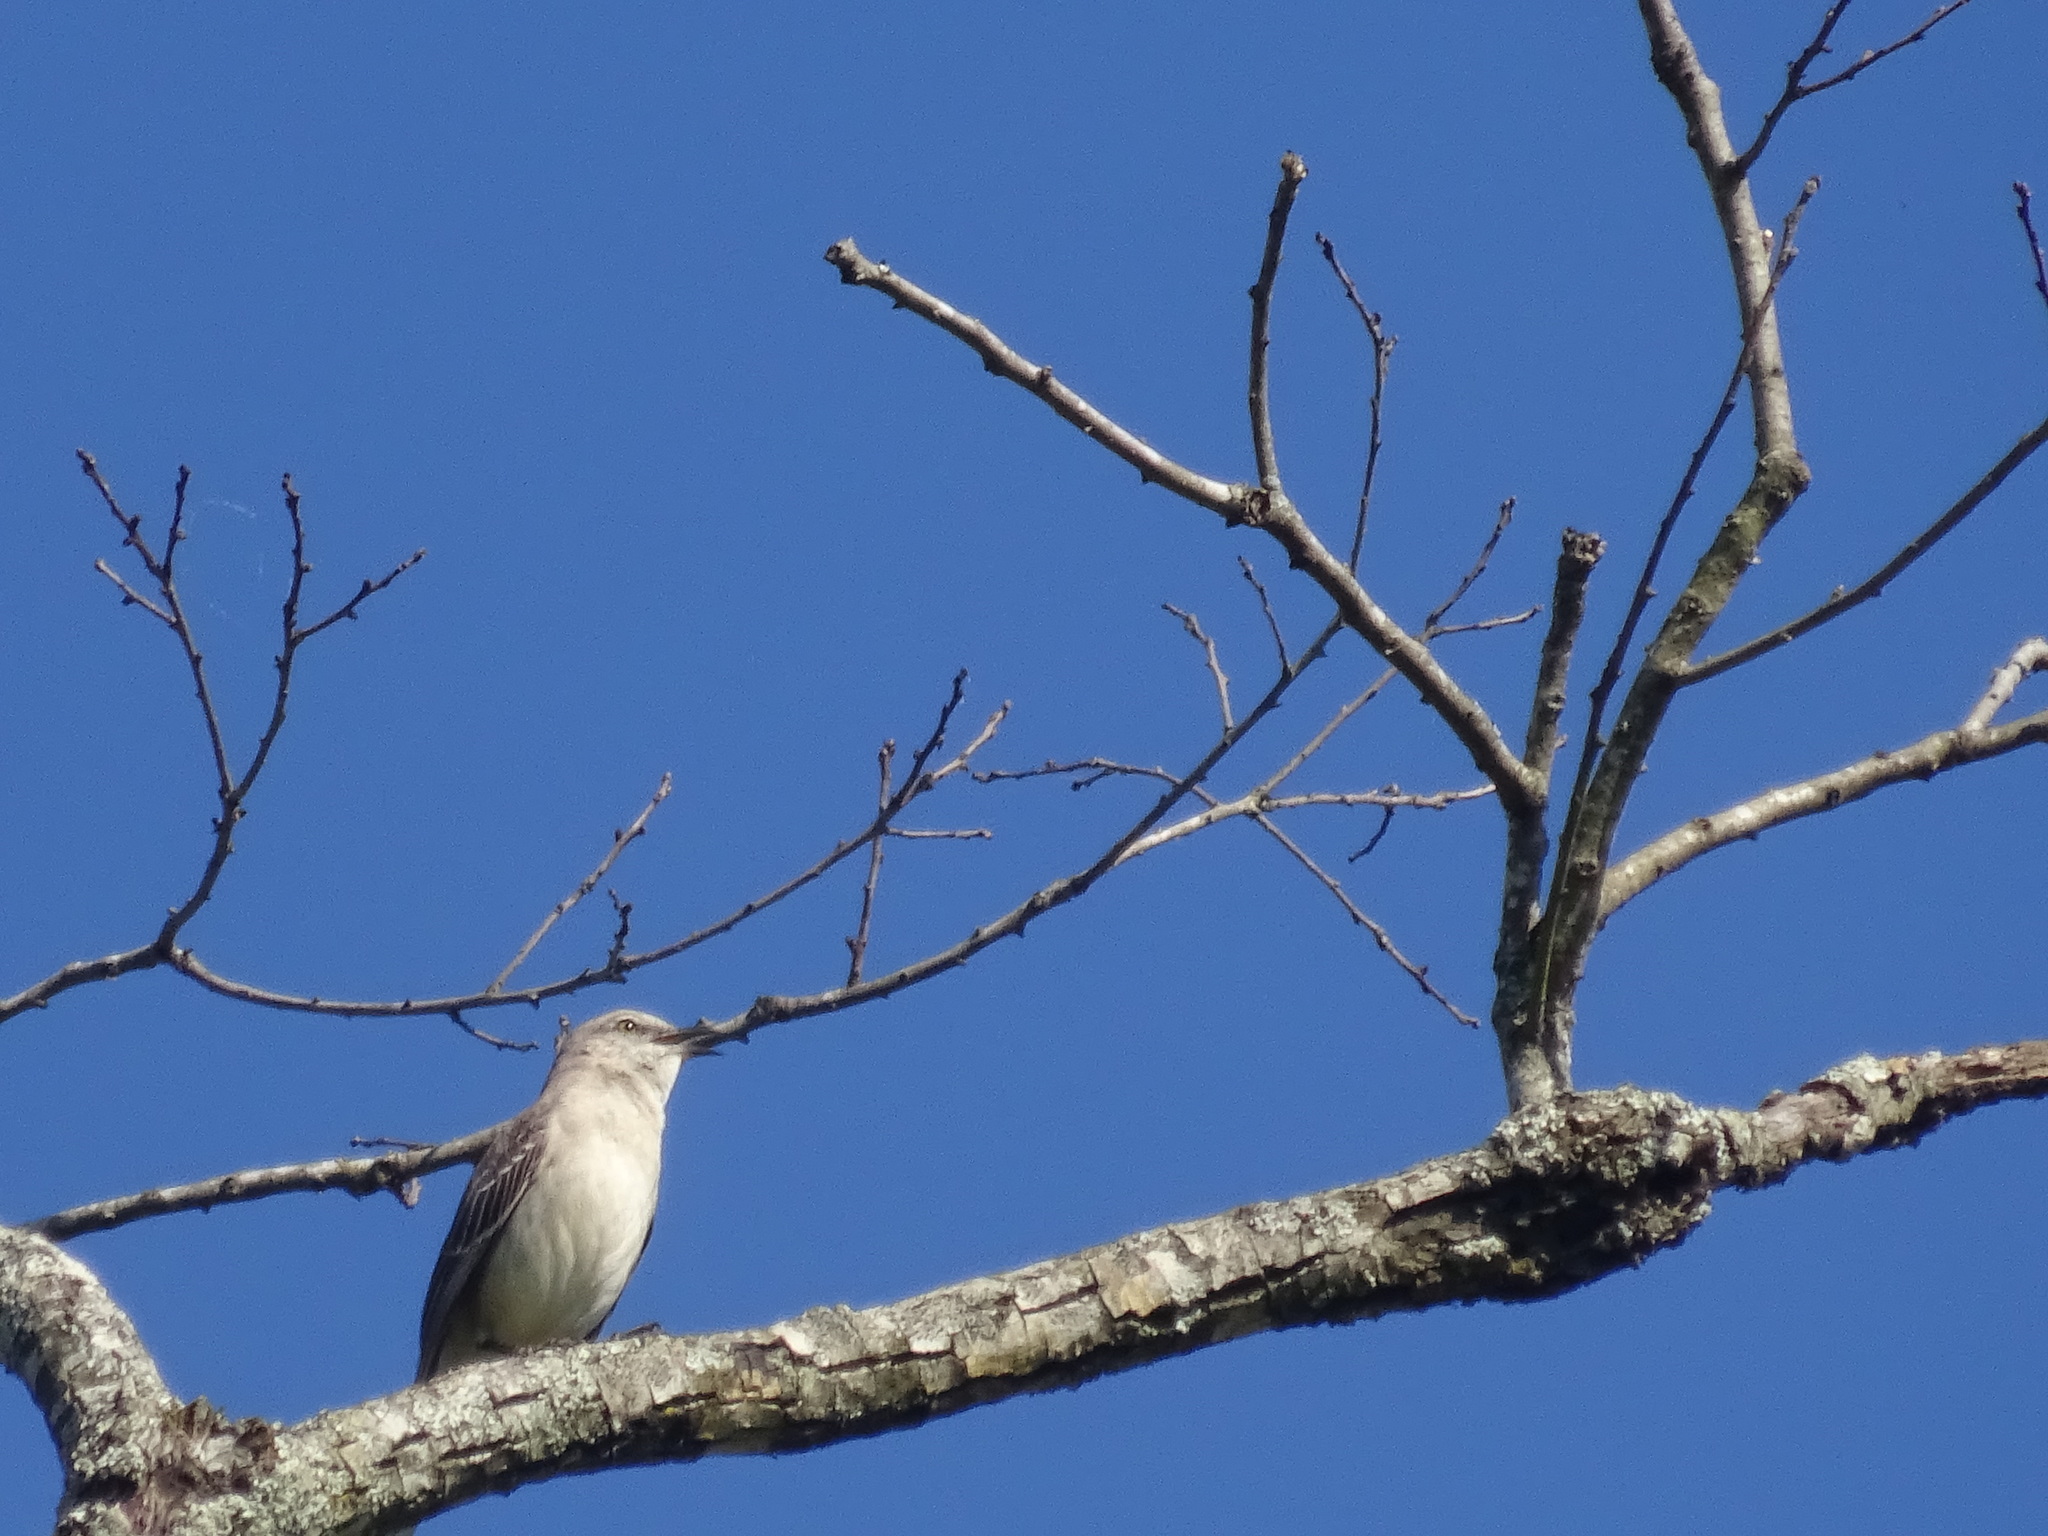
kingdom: Animalia
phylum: Chordata
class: Aves
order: Passeriformes
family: Mimidae
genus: Mimus
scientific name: Mimus polyglottos
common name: Northern mockingbird
